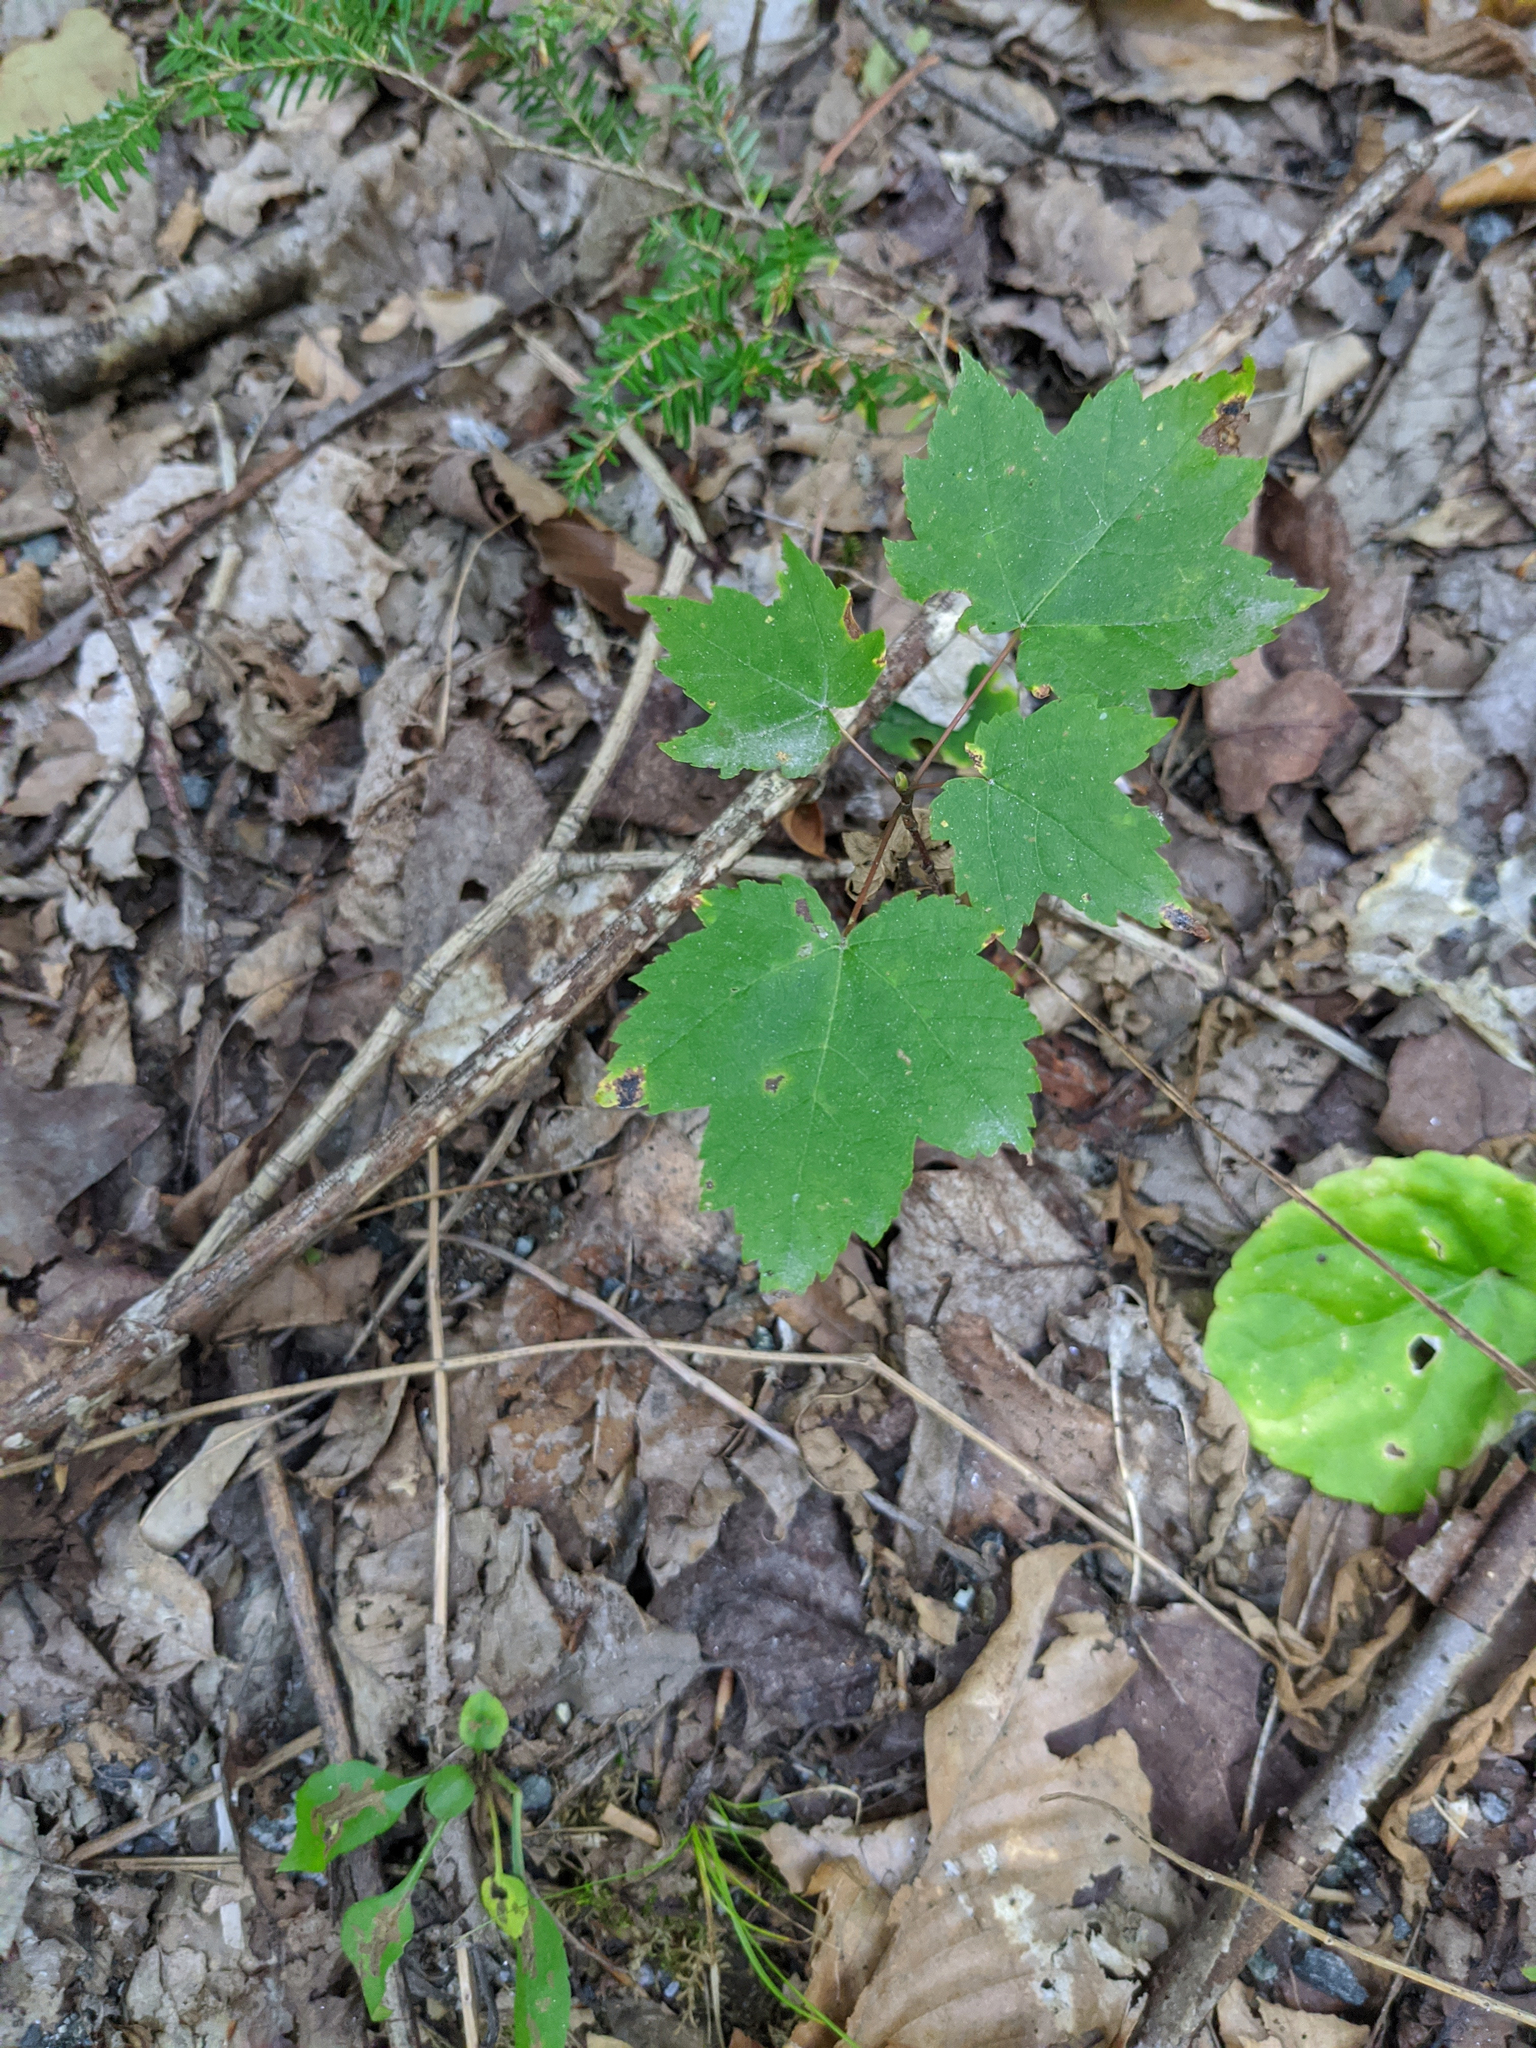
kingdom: Plantae
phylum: Tracheophyta
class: Magnoliopsida
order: Sapindales
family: Sapindaceae
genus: Acer
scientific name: Acer rubrum
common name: Red maple
